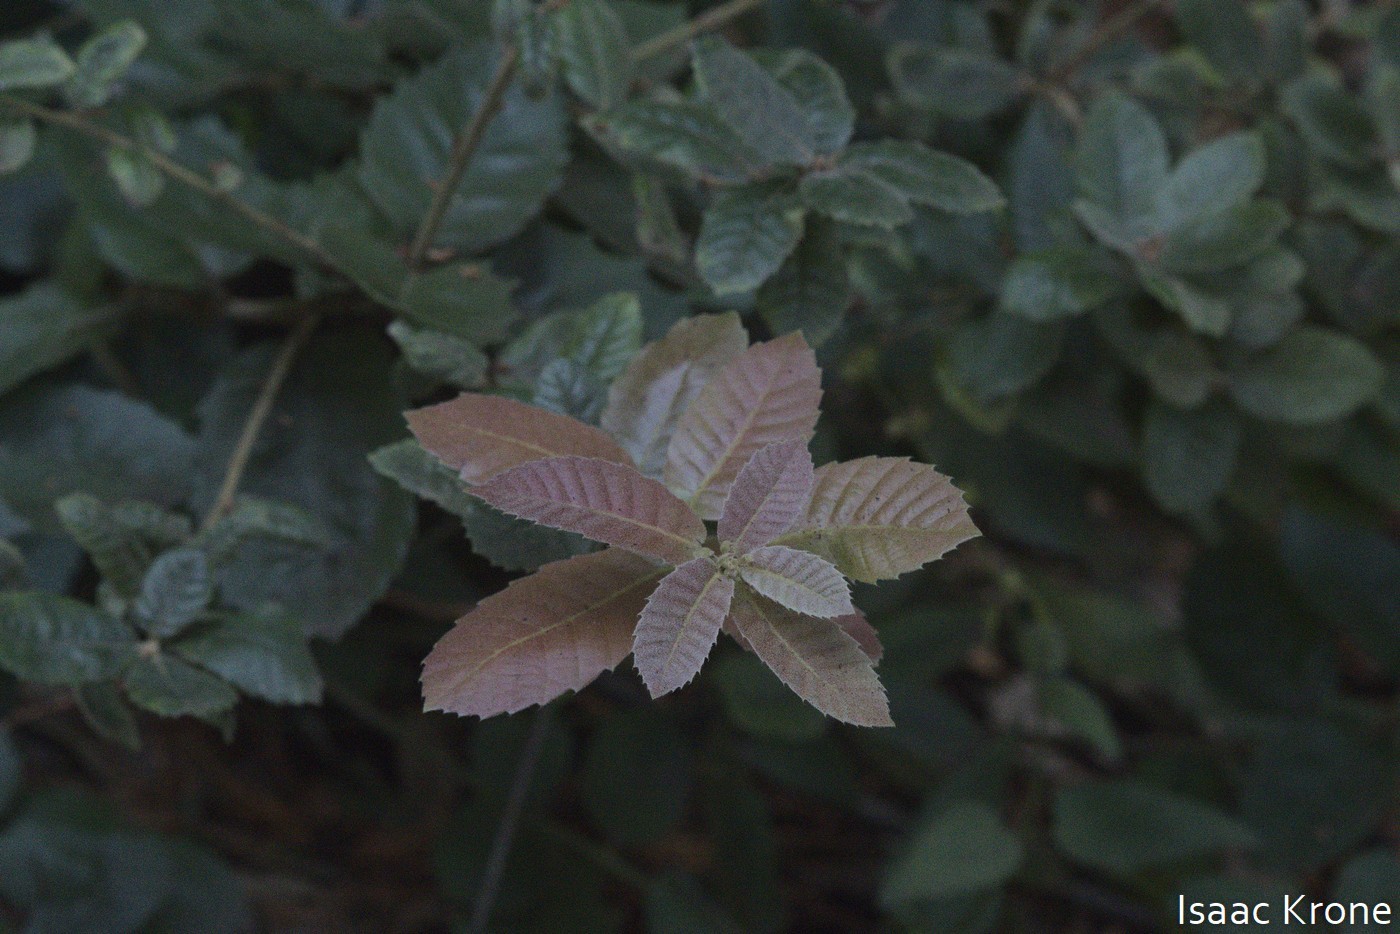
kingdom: Plantae
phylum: Tracheophyta
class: Magnoliopsida
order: Fagales
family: Fagaceae
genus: Notholithocarpus
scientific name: Notholithocarpus densiflorus
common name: Tan bark oak
